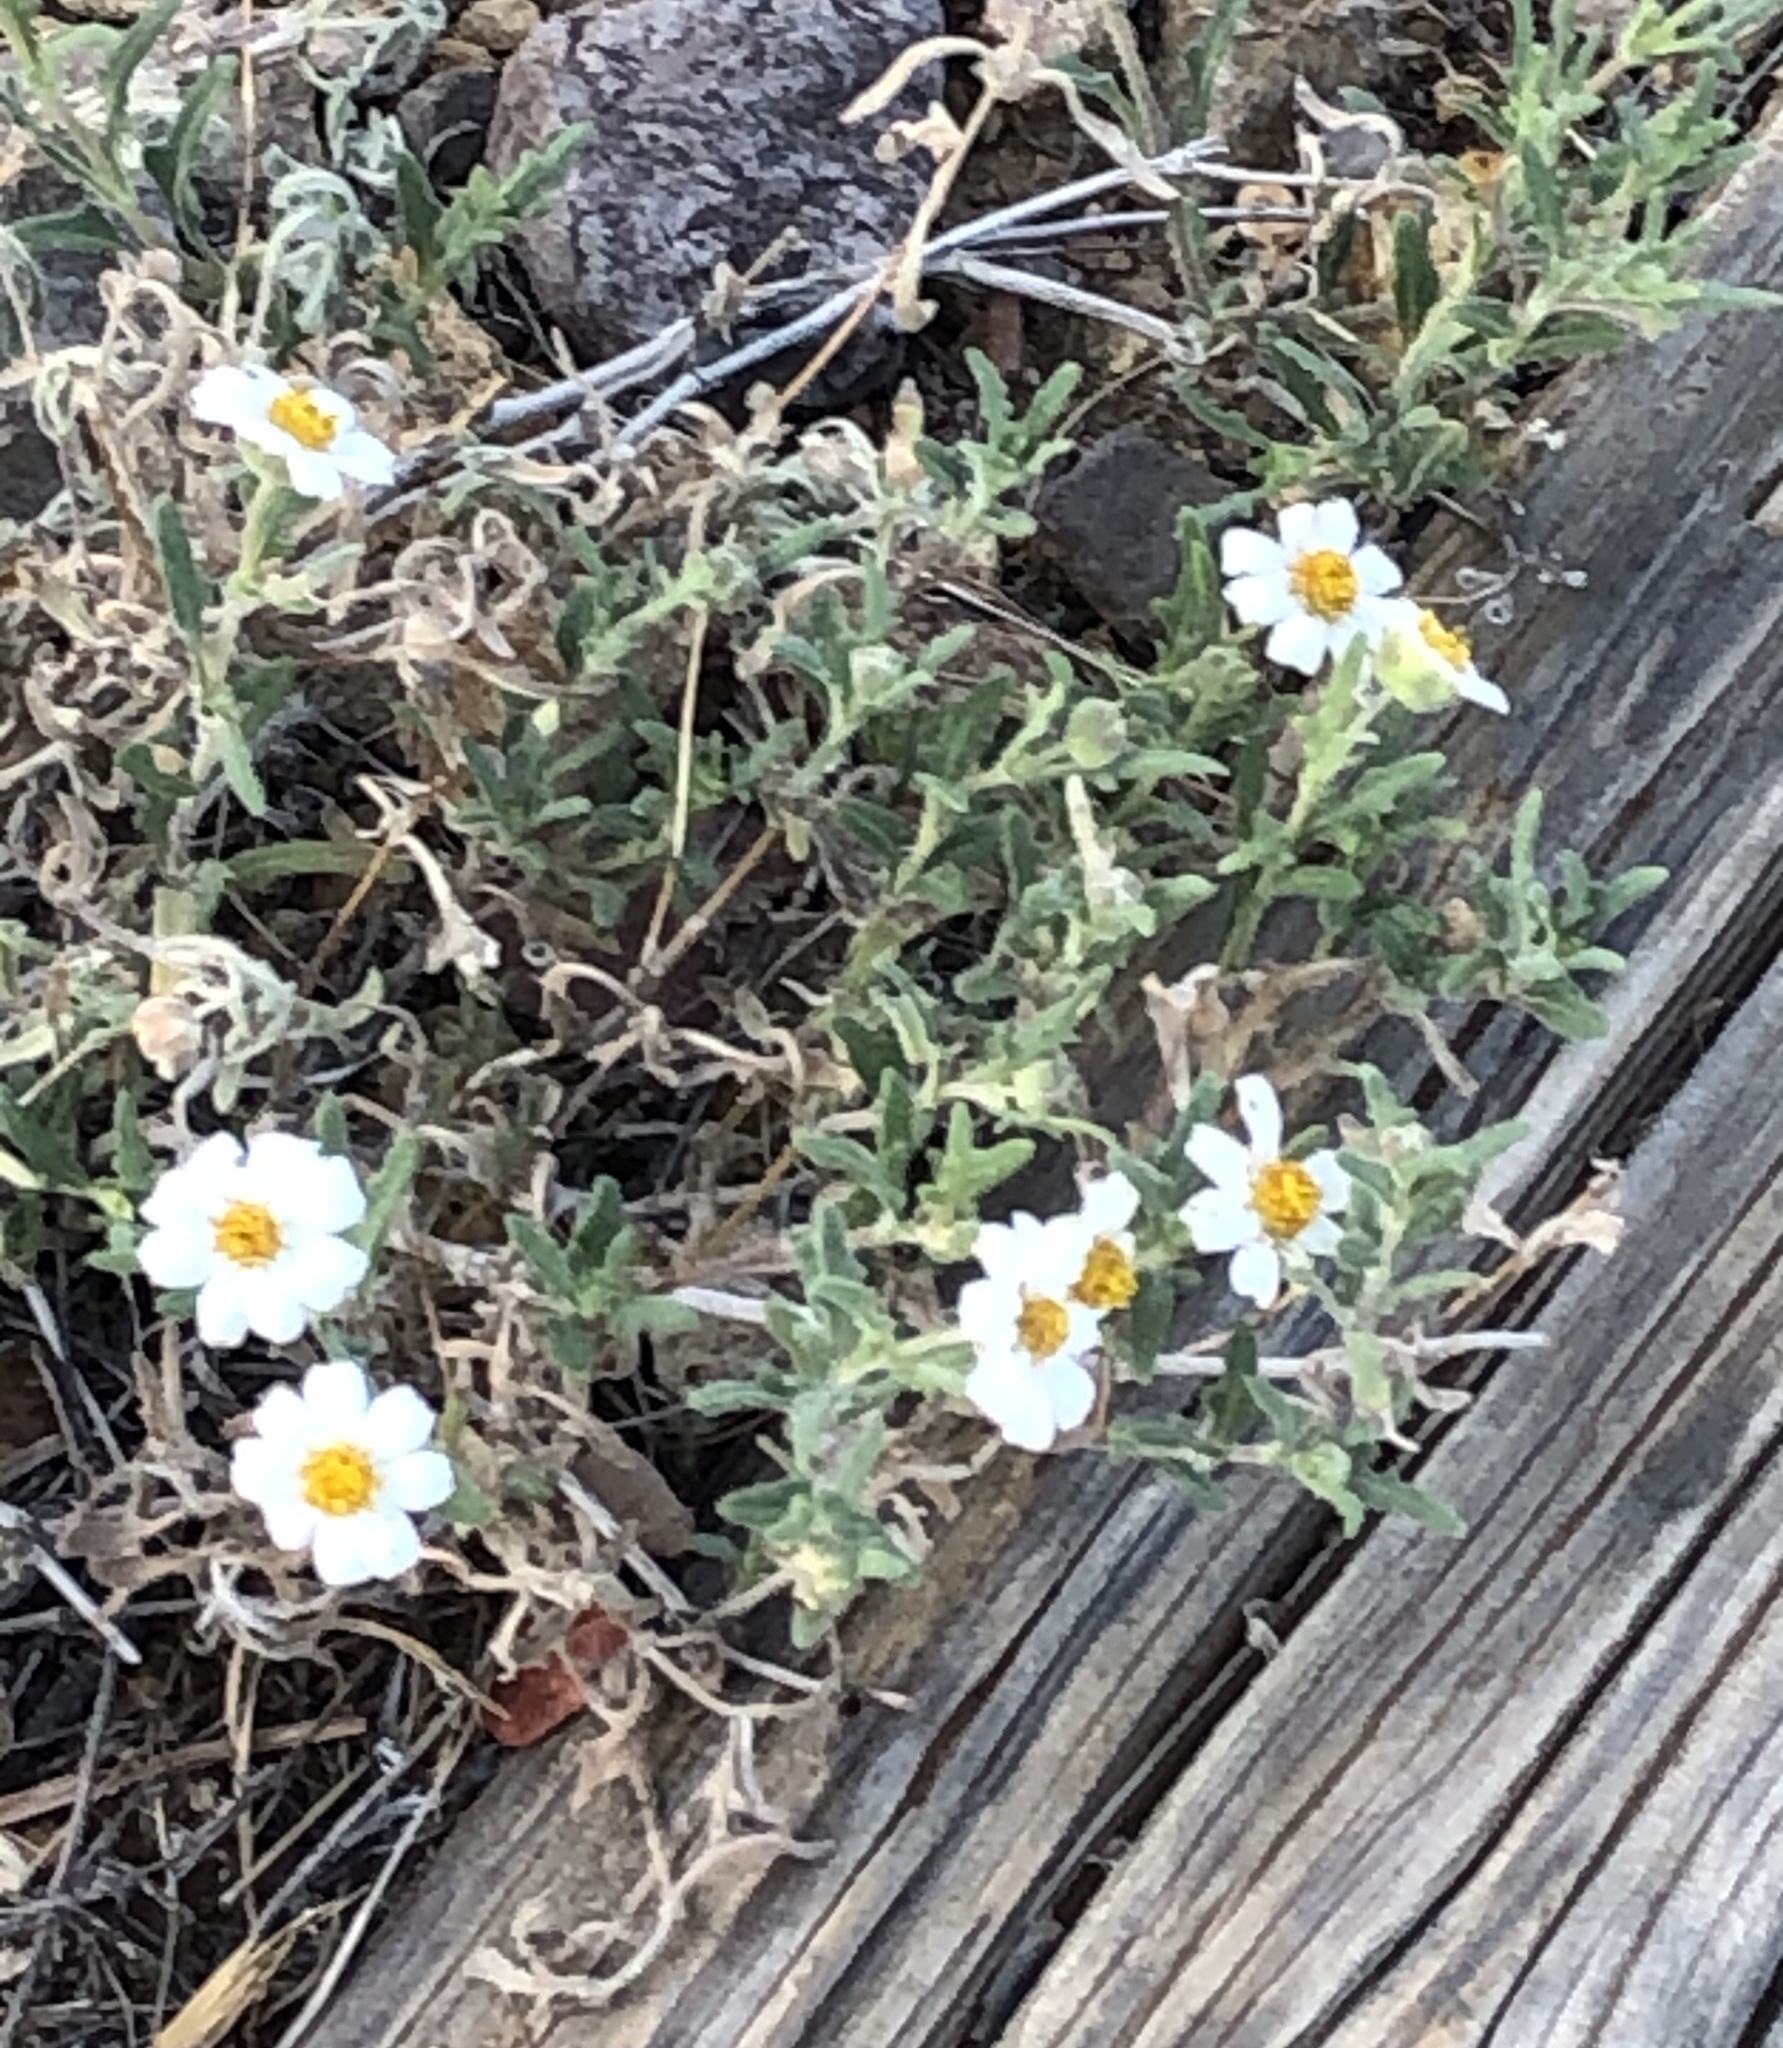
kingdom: Plantae
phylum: Tracheophyta
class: Magnoliopsida
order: Asterales
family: Asteraceae
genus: Melampodium
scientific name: Melampodium leucanthum
